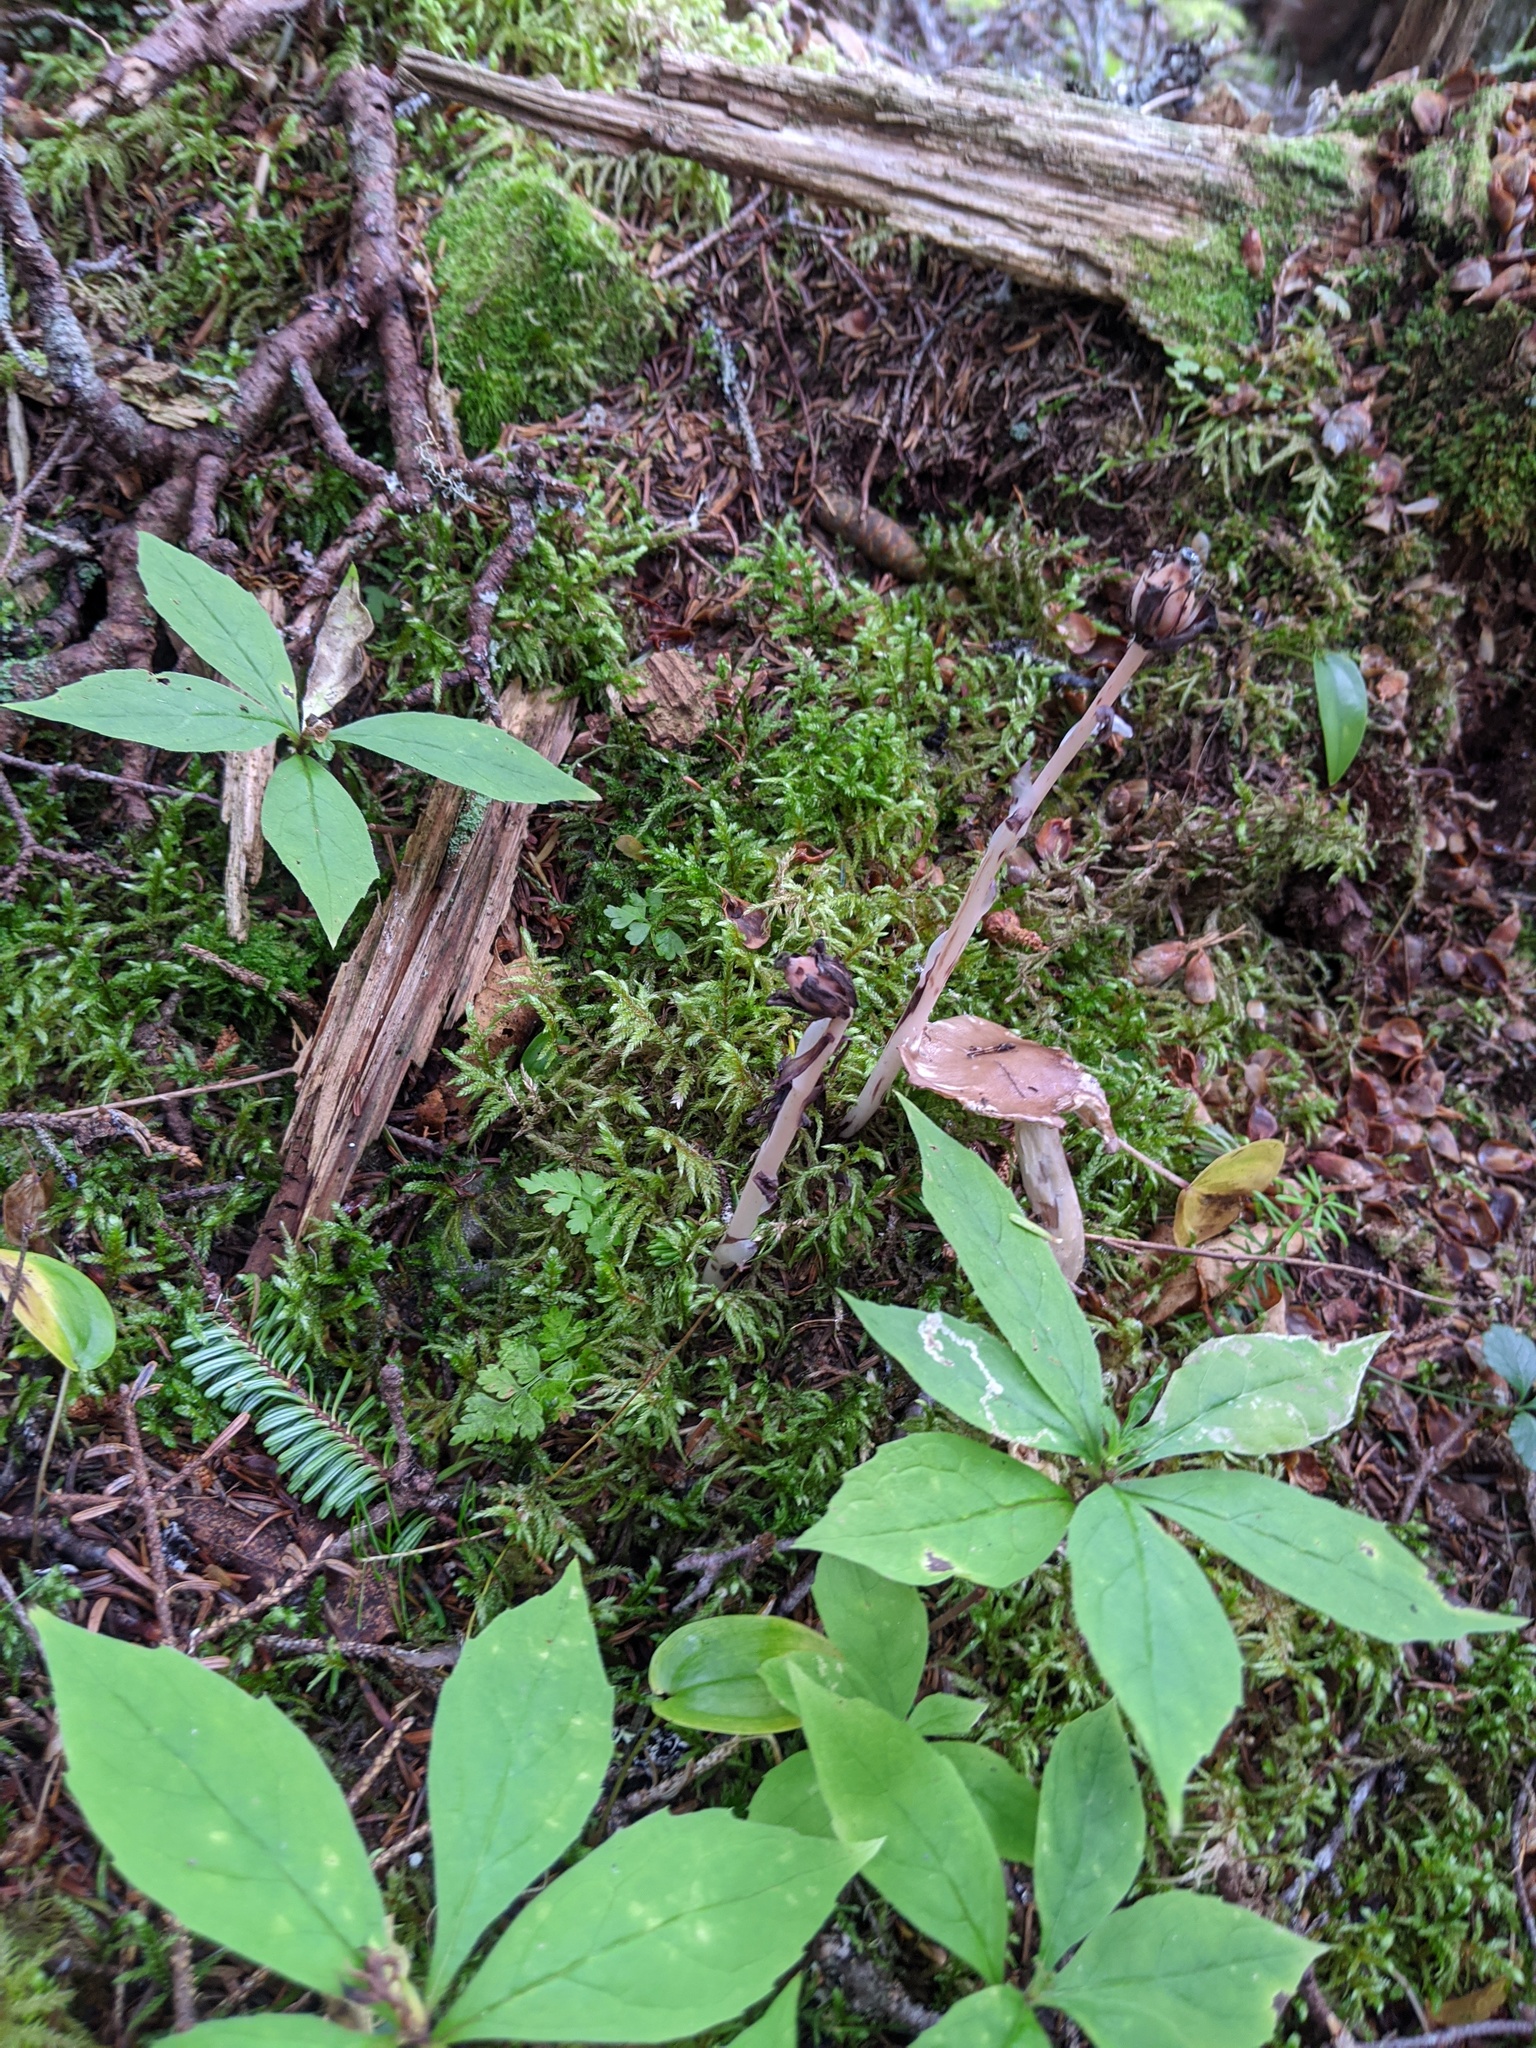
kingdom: Plantae
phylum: Tracheophyta
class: Magnoliopsida
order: Ericales
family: Ericaceae
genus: Monotropa
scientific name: Monotropa uniflora
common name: Convulsion root
